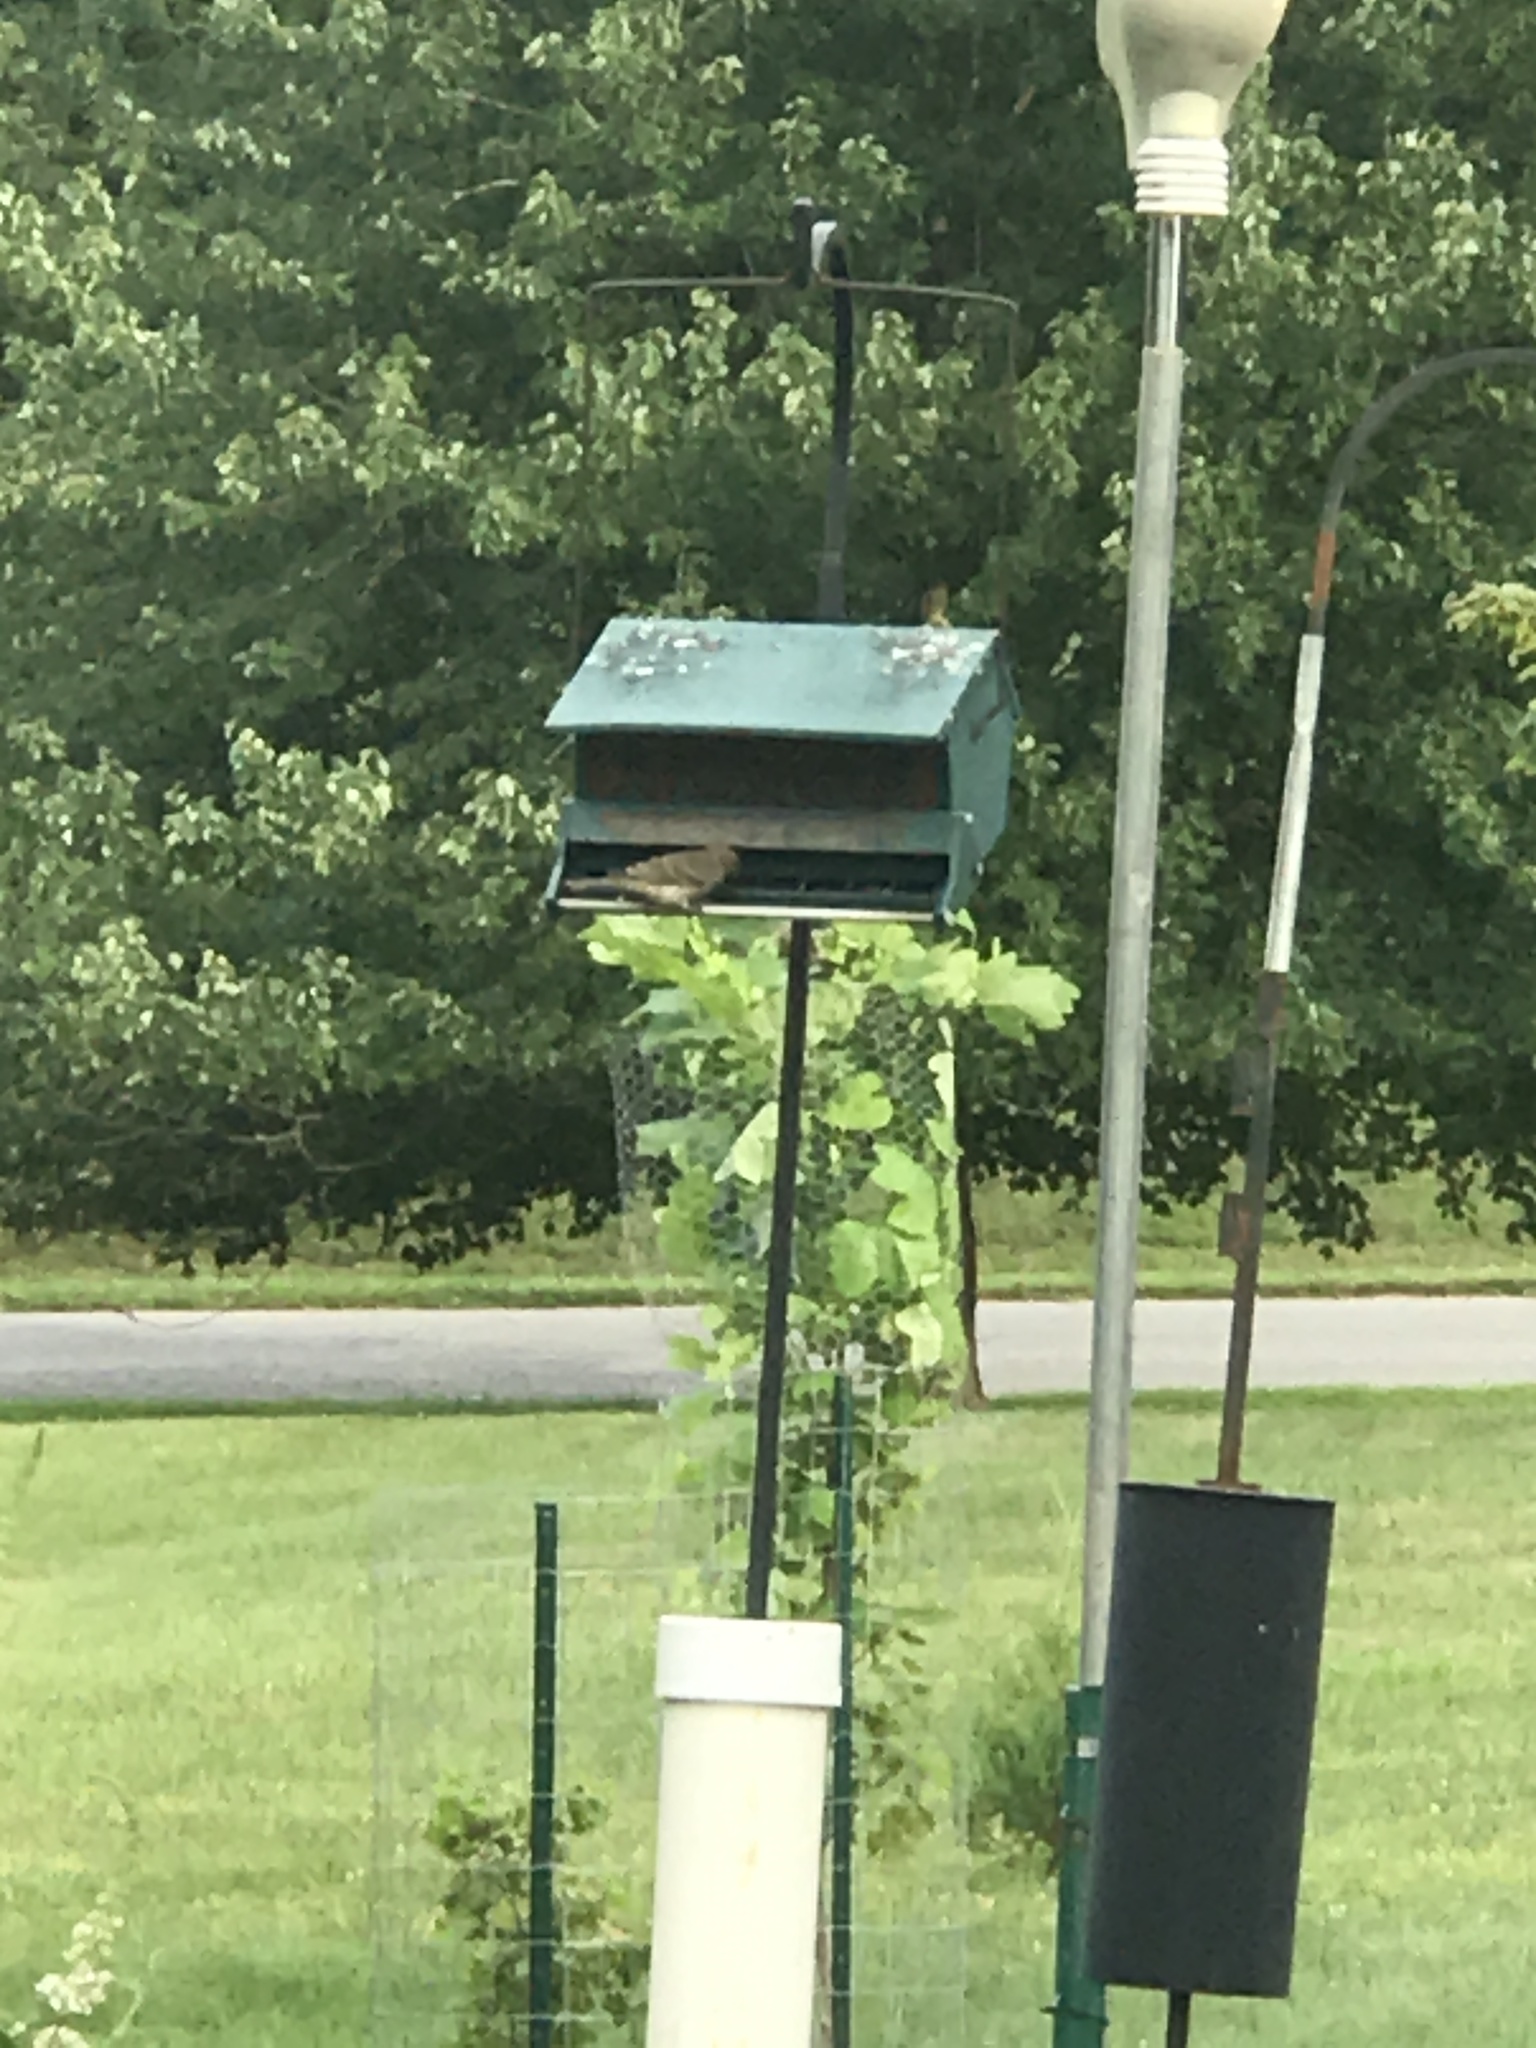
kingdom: Animalia
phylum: Chordata
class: Aves
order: Passeriformes
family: Fringillidae
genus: Haemorhous
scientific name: Haemorhous mexicanus
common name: House finch
